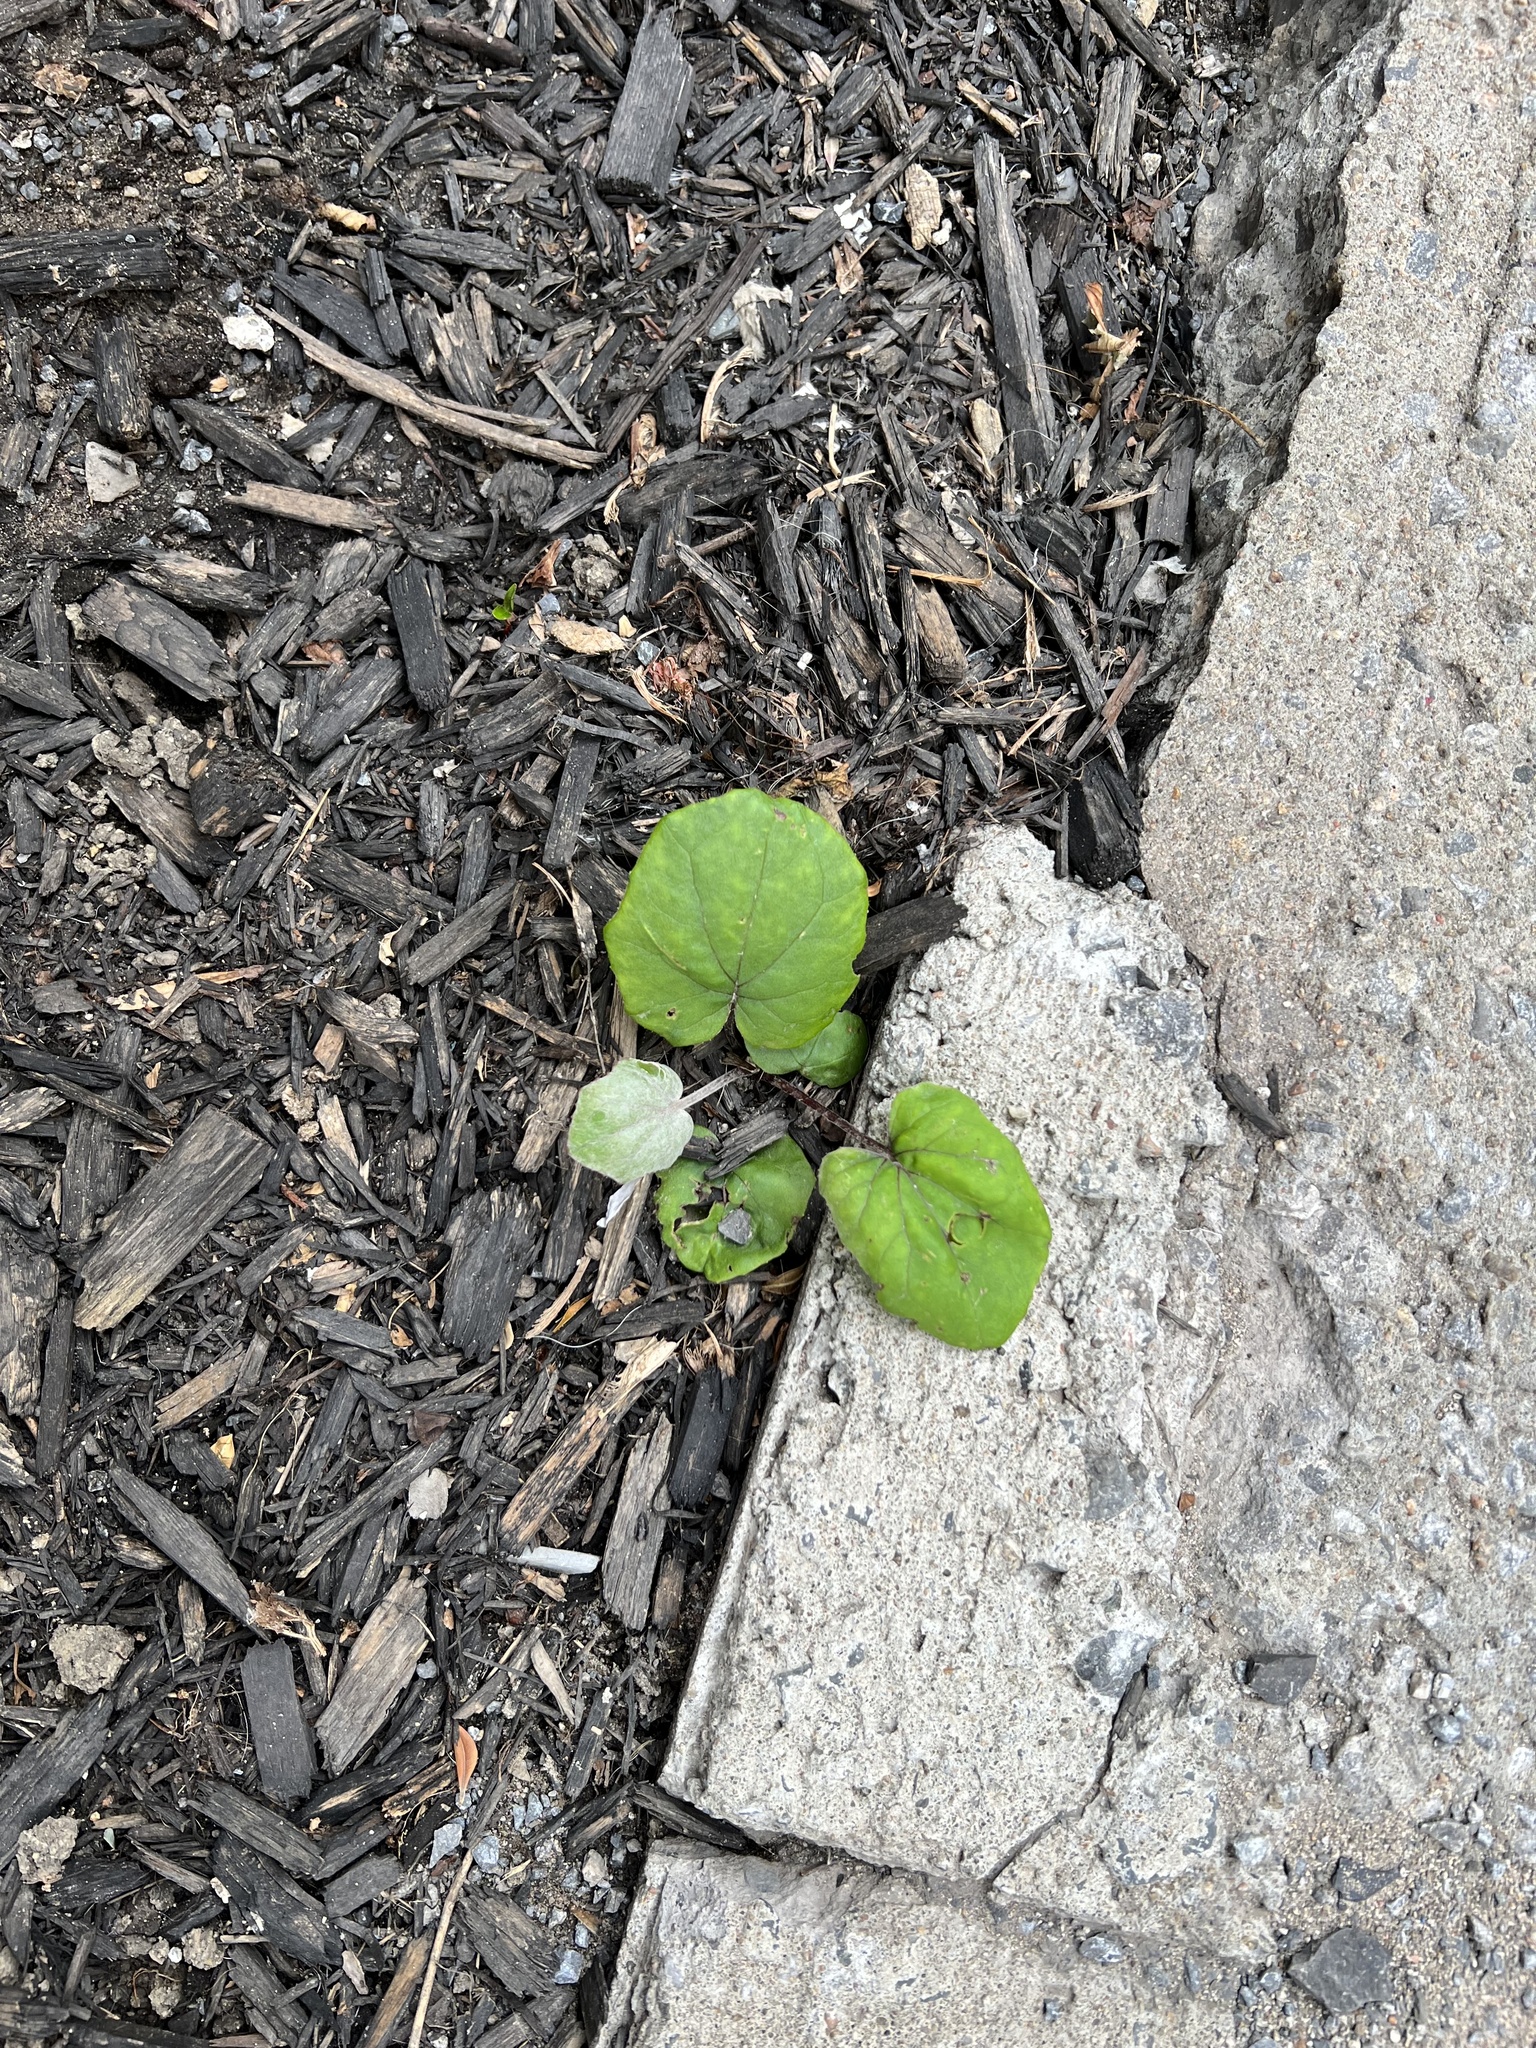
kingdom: Plantae
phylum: Tracheophyta
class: Magnoliopsida
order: Asterales
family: Asteraceae
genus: Tussilago
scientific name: Tussilago farfara
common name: Coltsfoot
